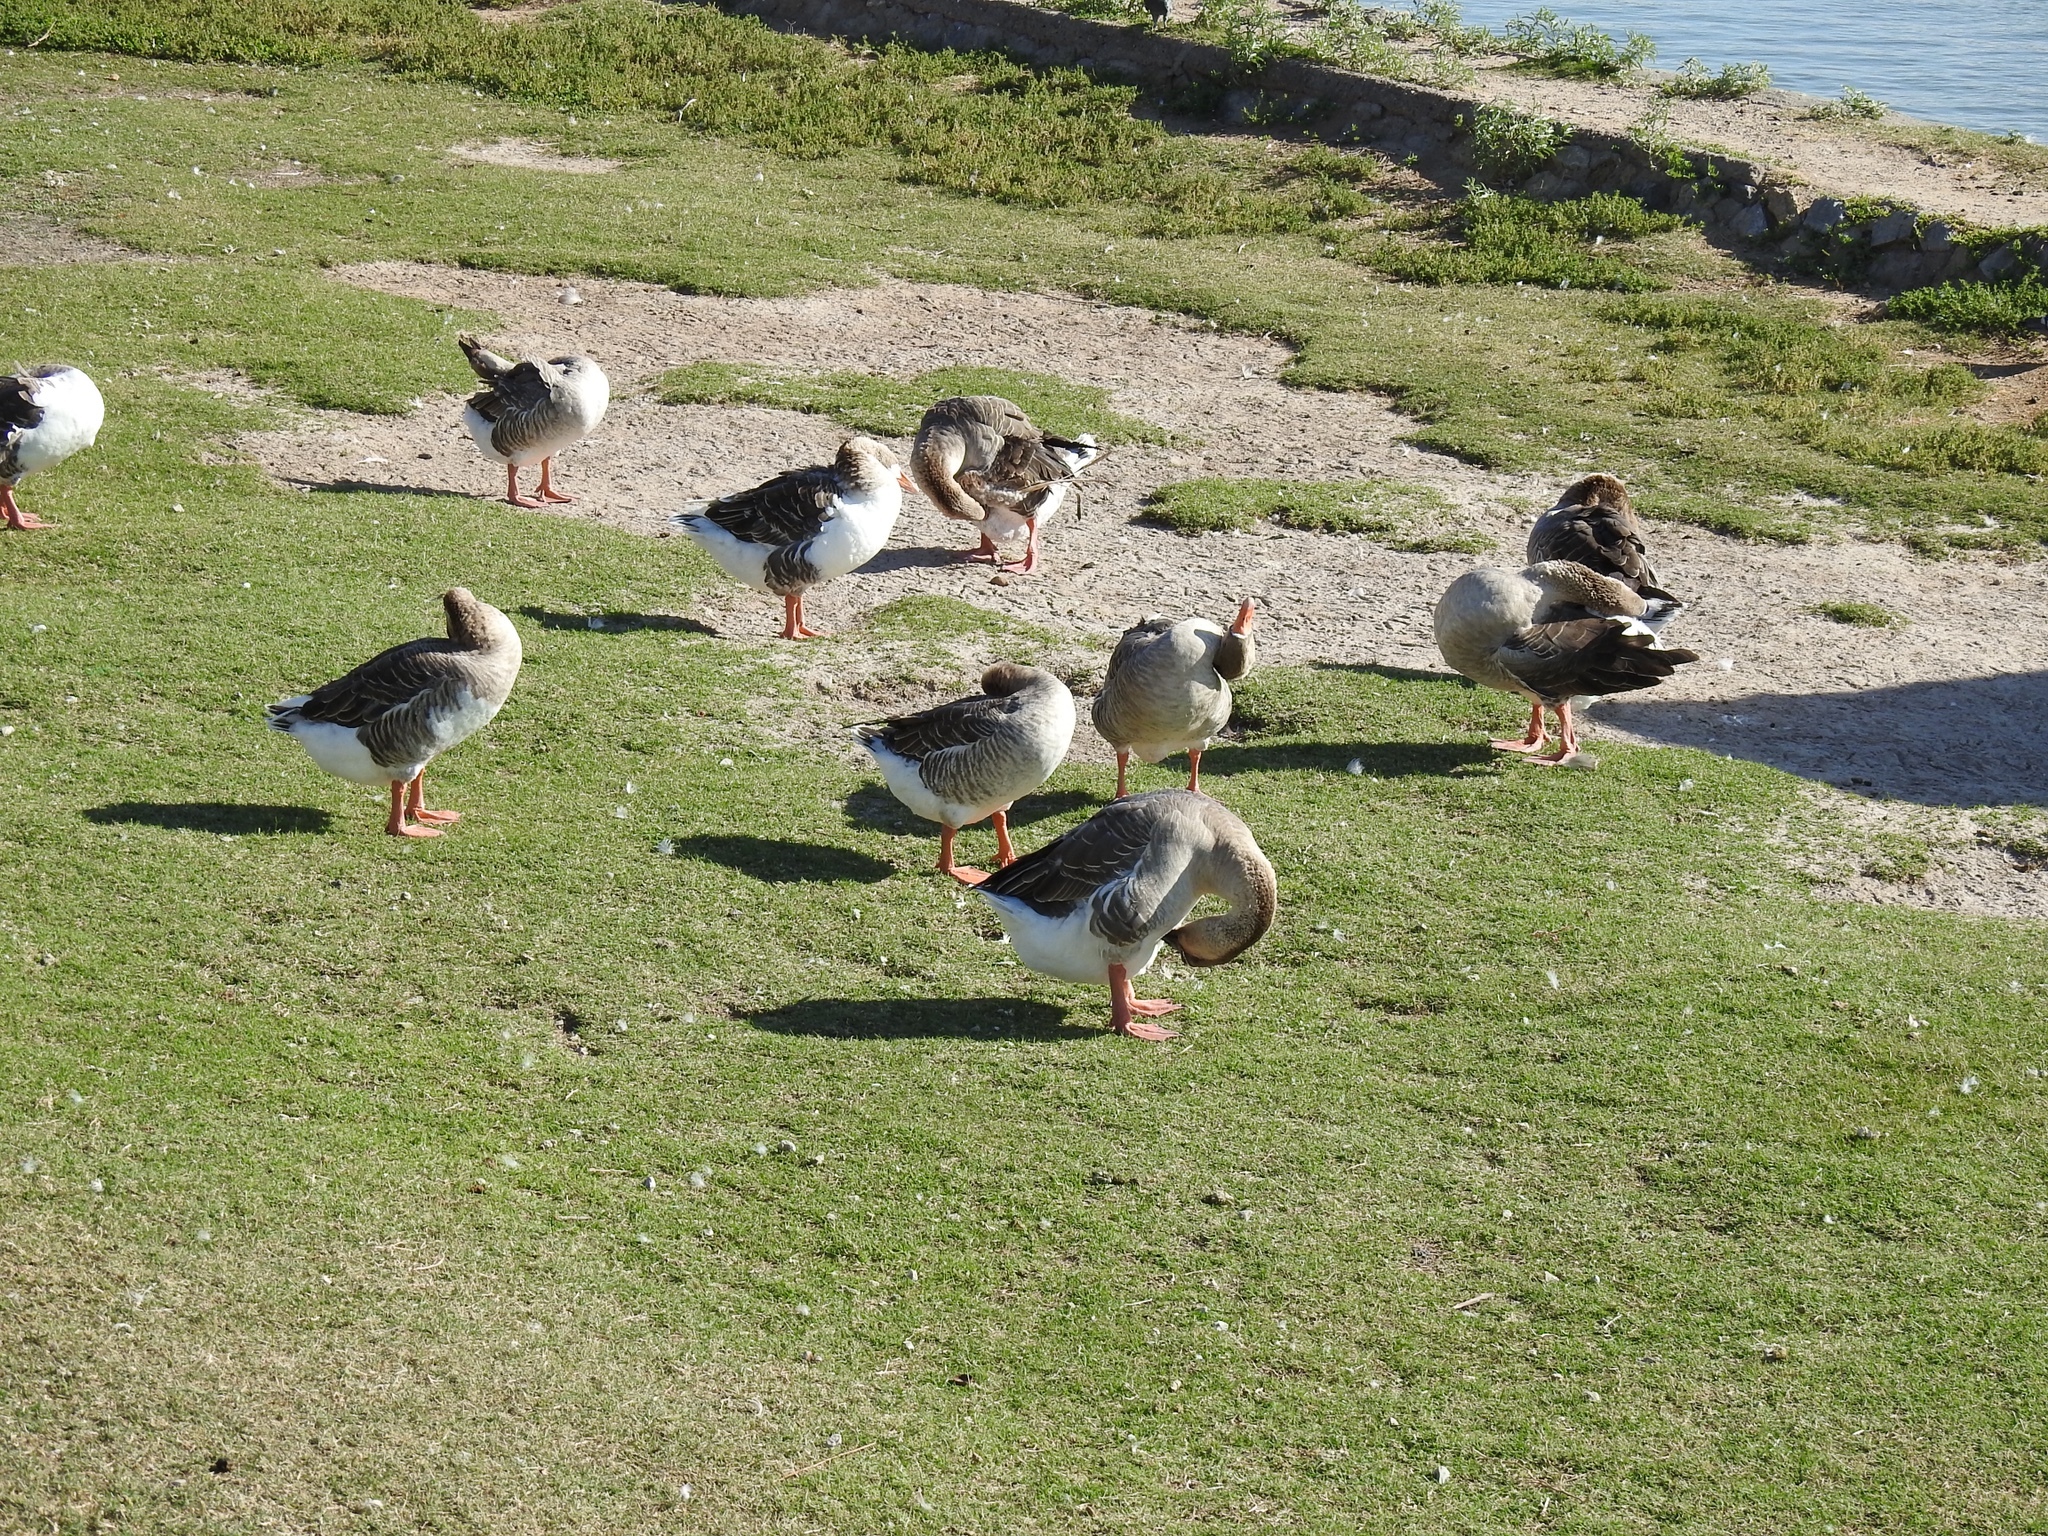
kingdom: Animalia
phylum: Chordata
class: Aves
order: Anseriformes
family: Anatidae
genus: Anser
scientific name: Anser
